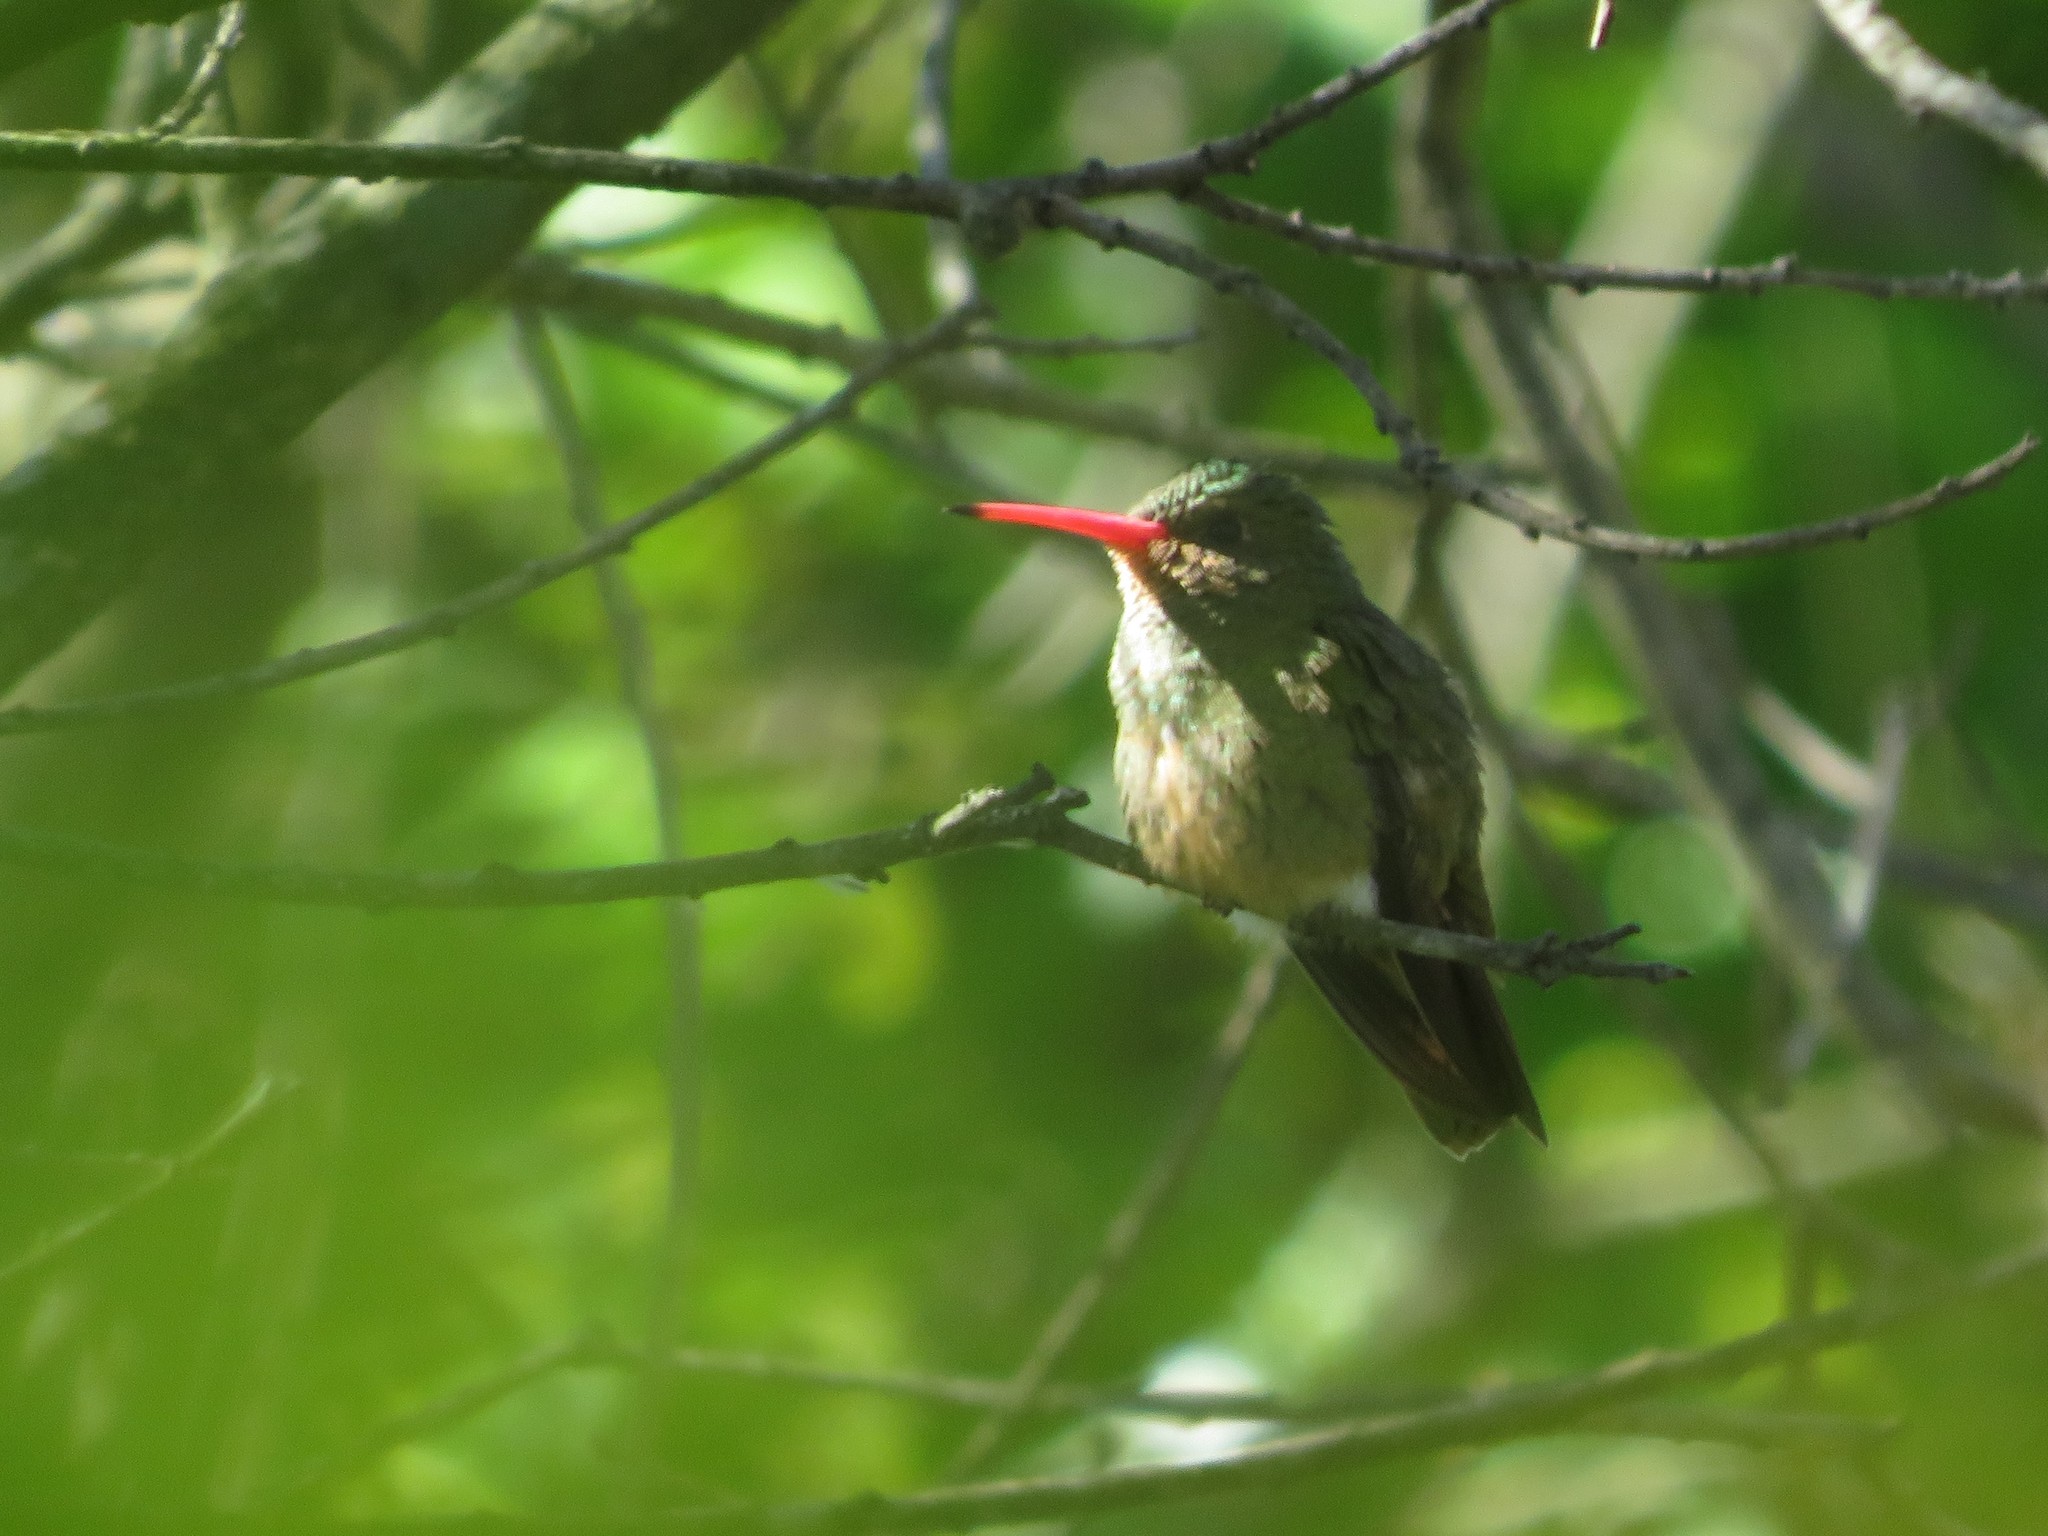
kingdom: Animalia
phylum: Chordata
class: Aves
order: Apodiformes
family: Trochilidae
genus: Hylocharis
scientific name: Hylocharis chrysura
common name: Gilded sapphire
